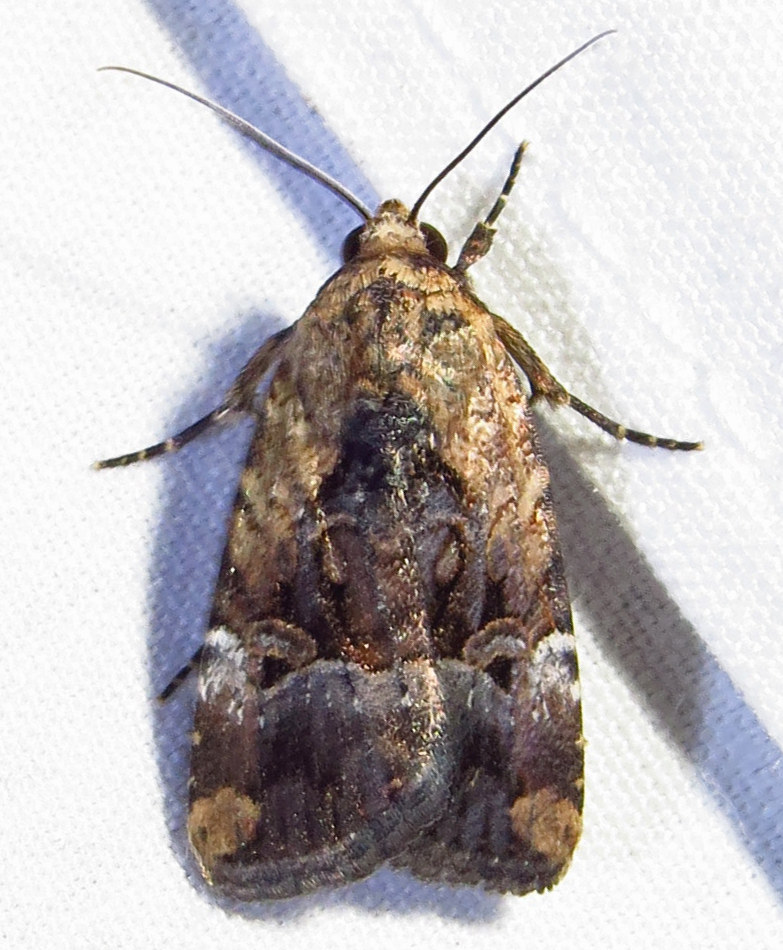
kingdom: Animalia
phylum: Arthropoda
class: Insecta
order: Lepidoptera
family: Noctuidae
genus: Elaphria
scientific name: Elaphria chalcedonia
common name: Chalcedony midget
